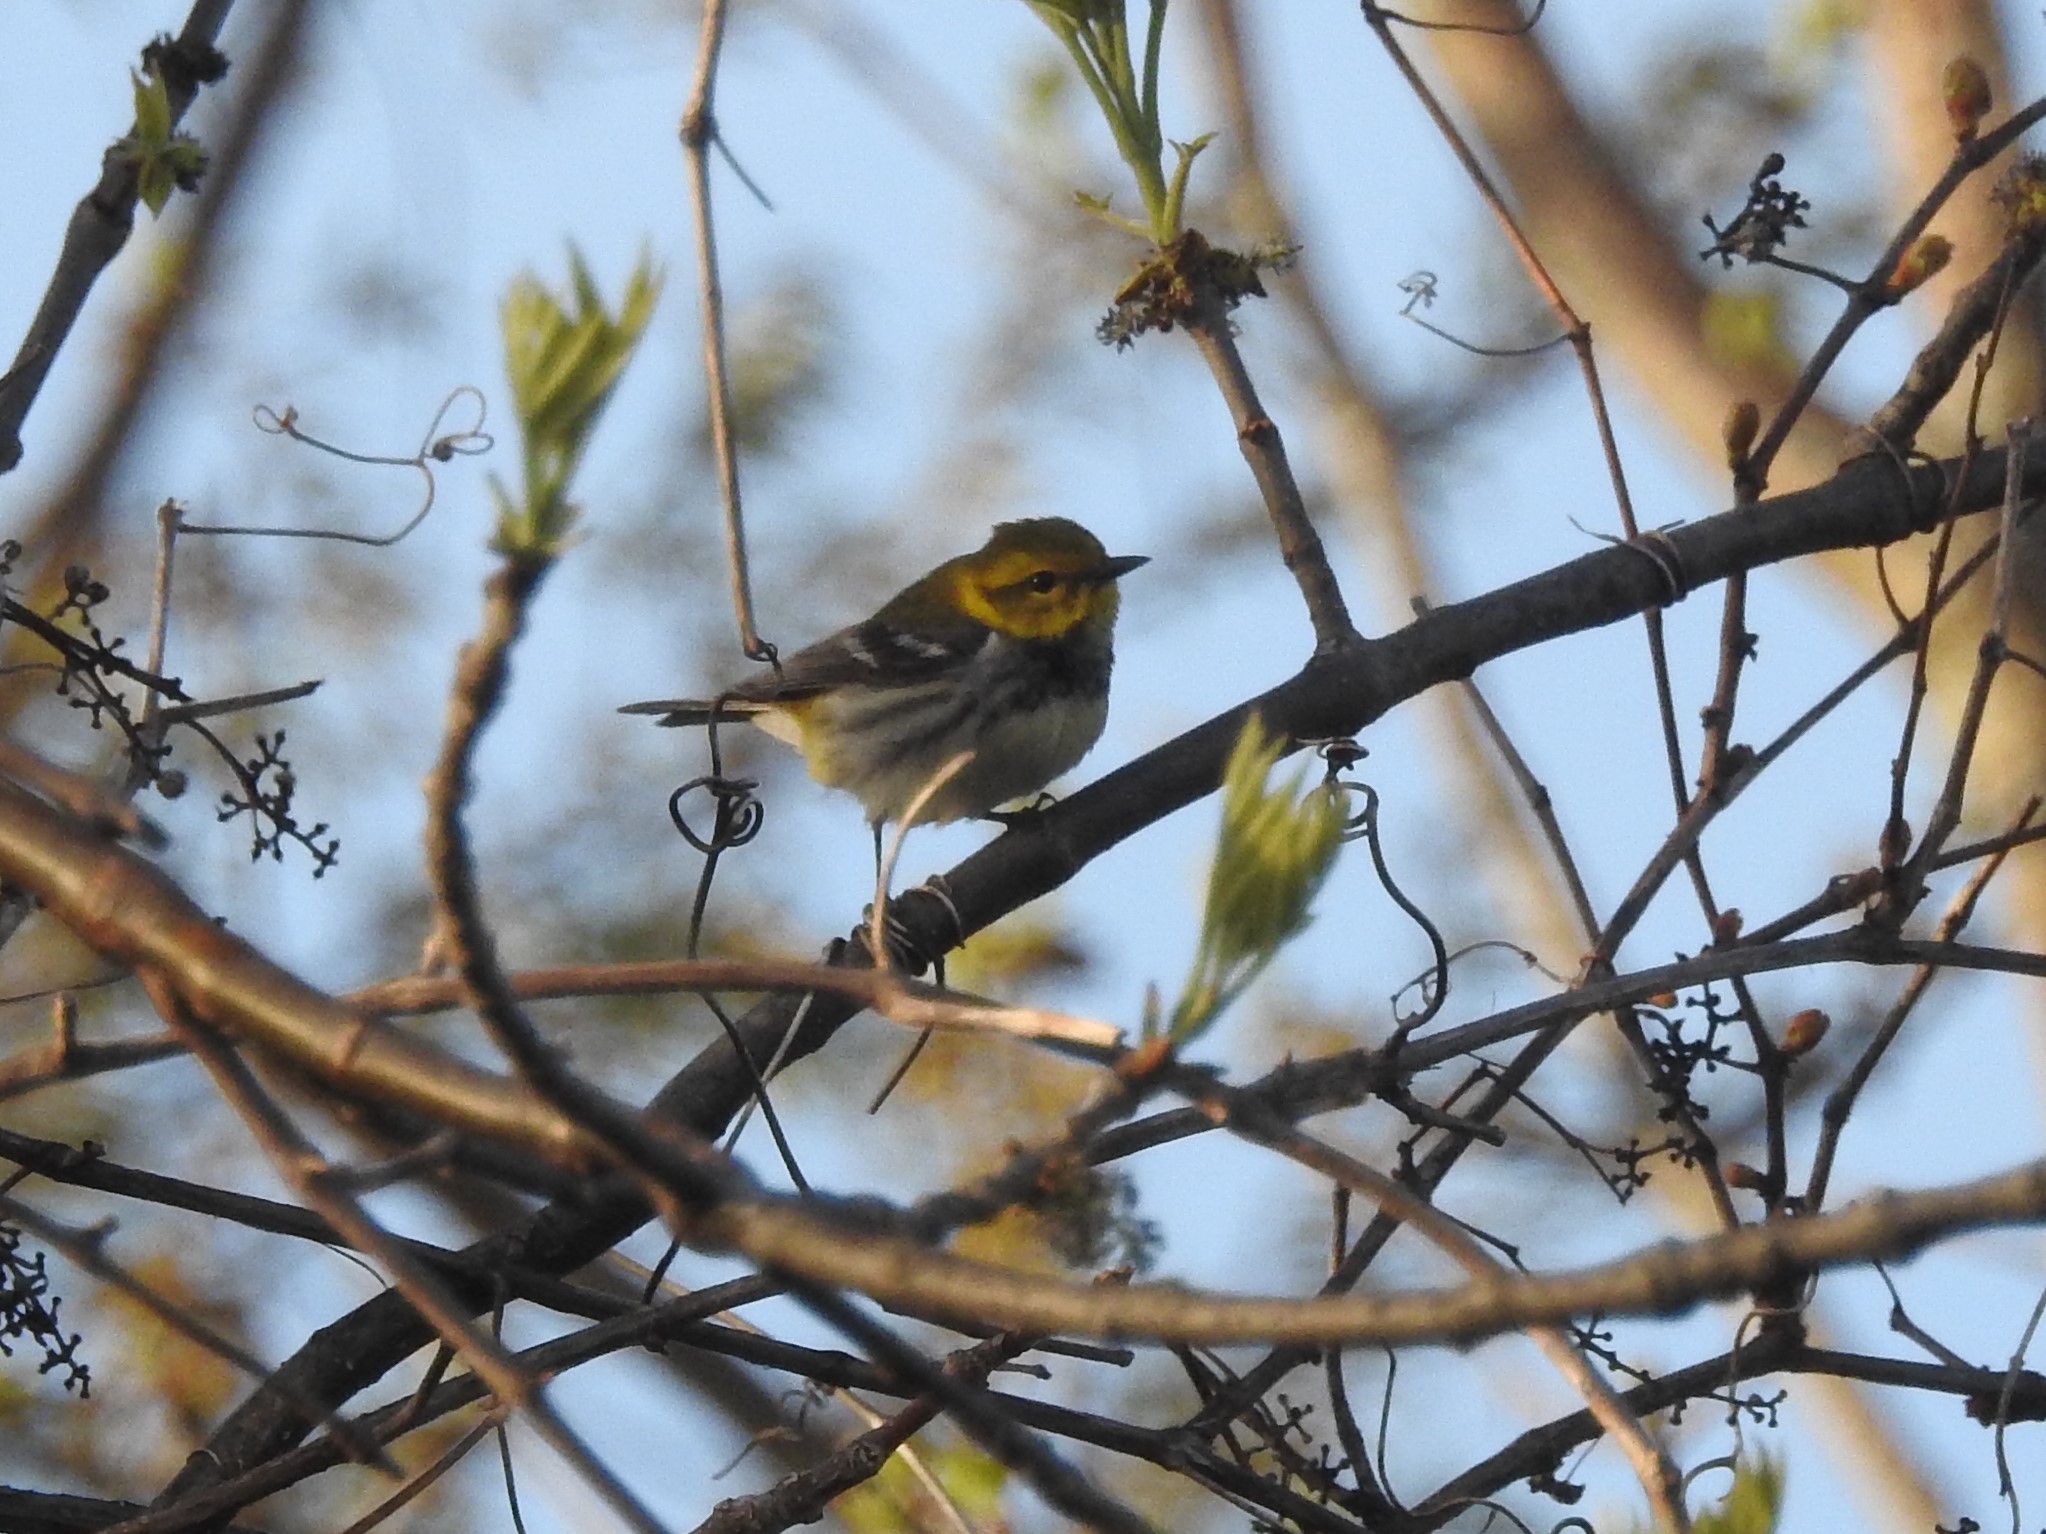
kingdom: Animalia
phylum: Chordata
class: Aves
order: Passeriformes
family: Parulidae
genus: Setophaga
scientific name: Setophaga virens
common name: Black-throated green warbler
